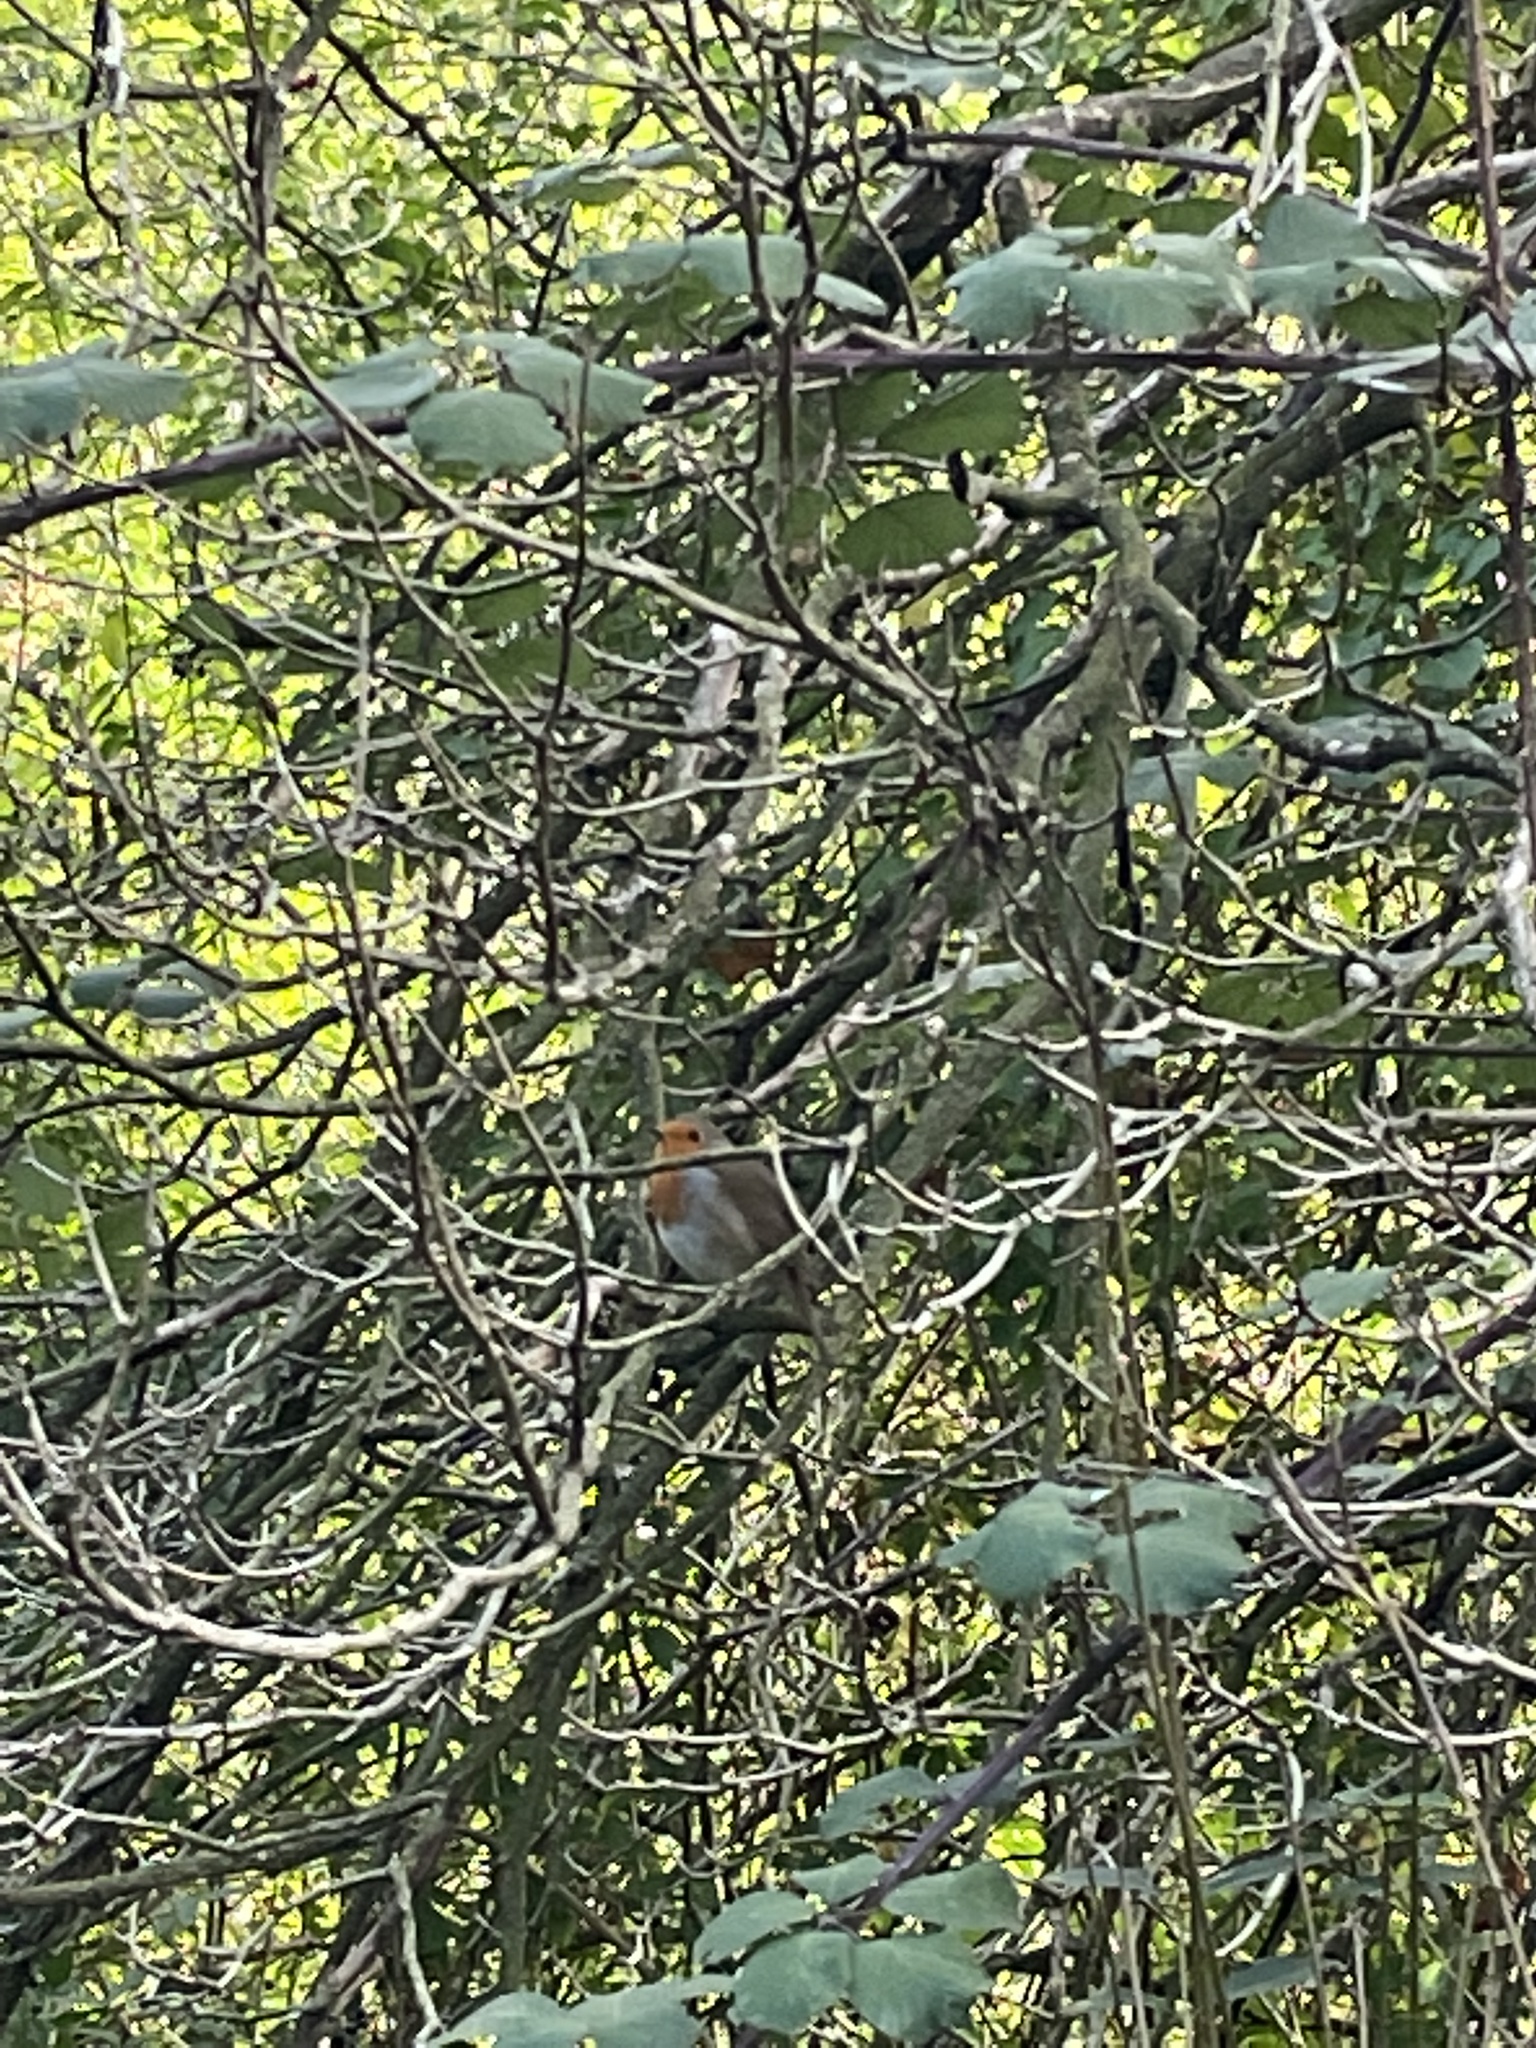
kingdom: Animalia
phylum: Chordata
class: Aves
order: Passeriformes
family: Muscicapidae
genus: Erithacus
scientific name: Erithacus rubecula
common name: European robin
